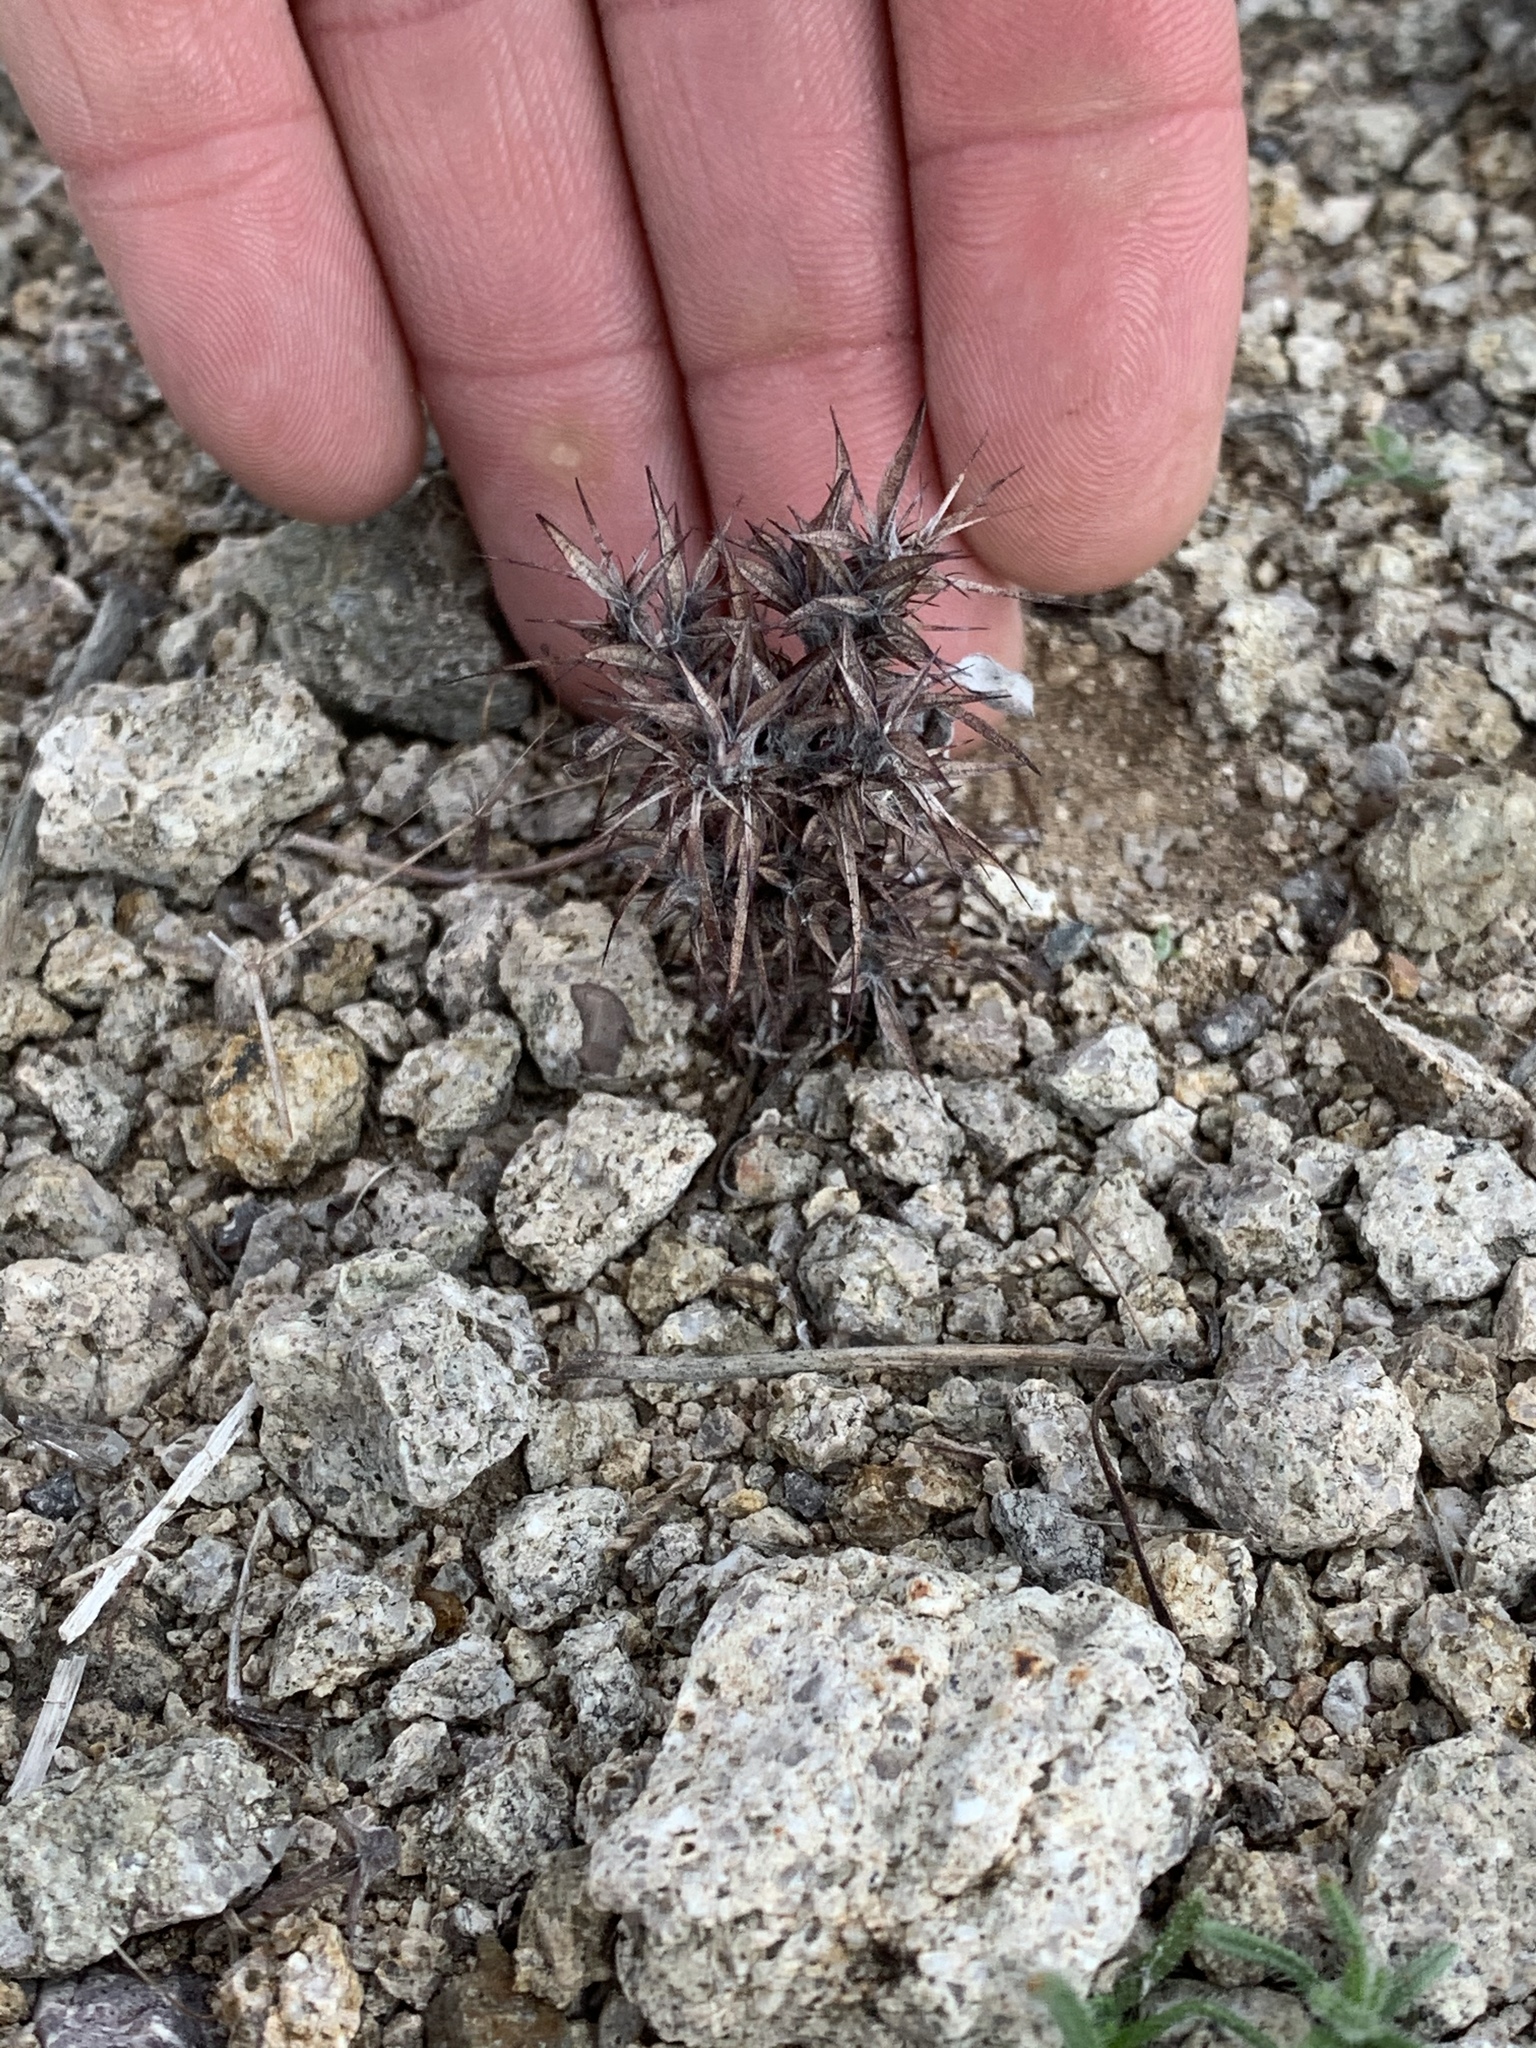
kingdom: Plantae
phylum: Tracheophyta
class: Magnoliopsida
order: Caryophyllales
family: Polygonaceae
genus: Chorizanthe
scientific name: Chorizanthe rigida
